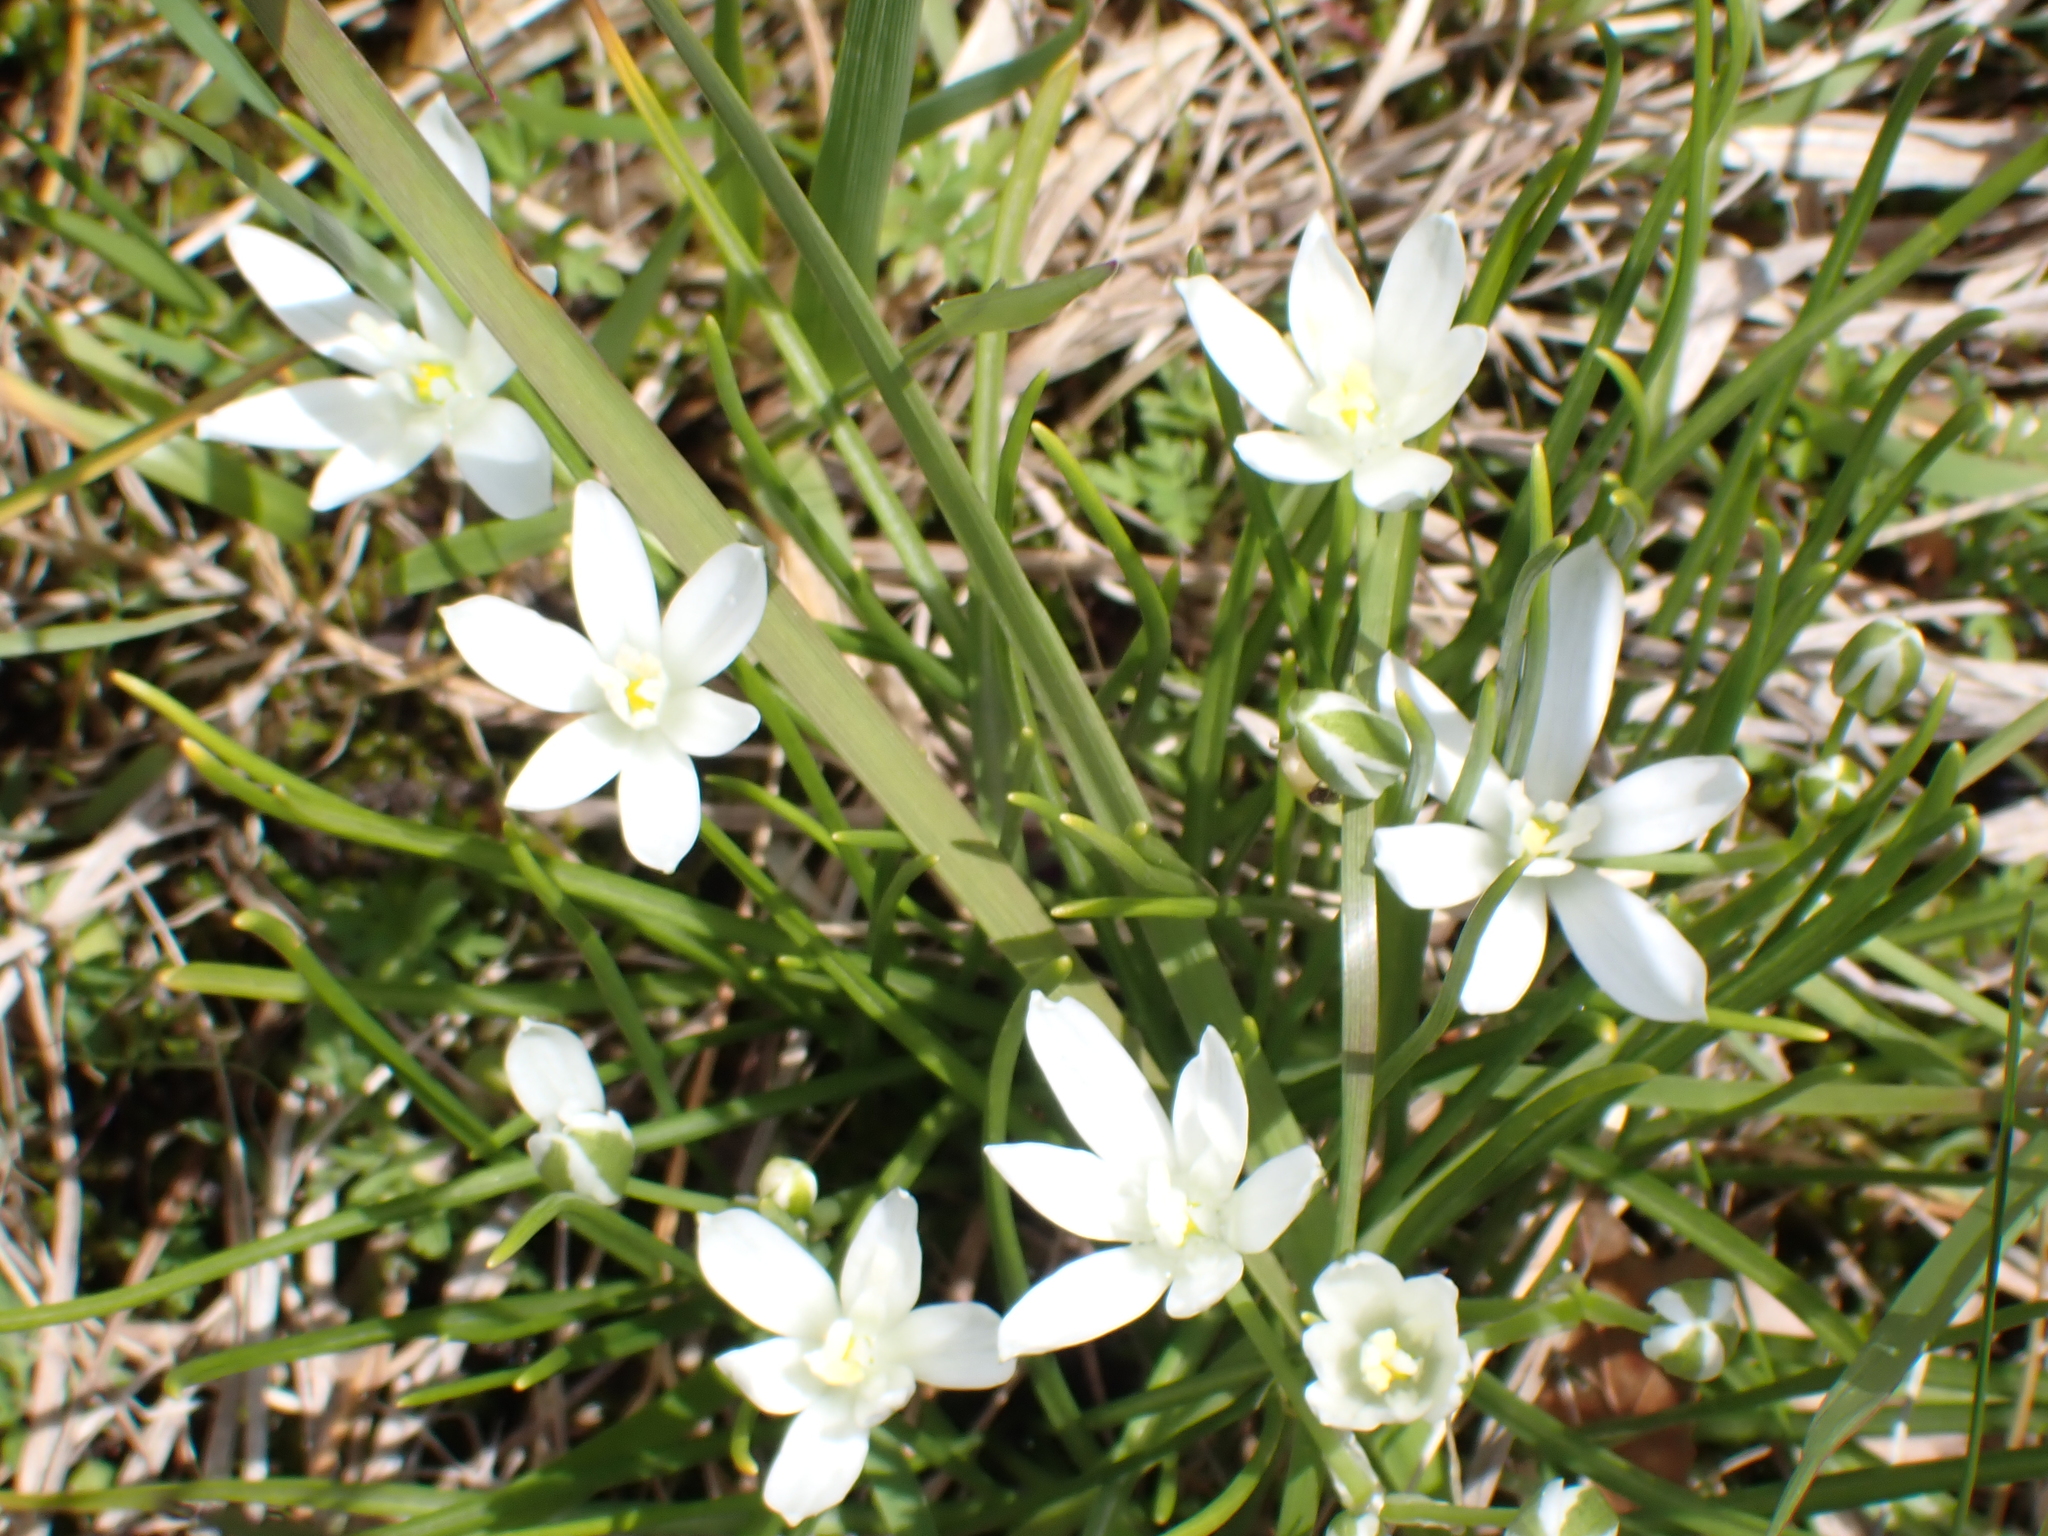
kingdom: Plantae
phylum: Tracheophyta
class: Liliopsida
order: Asparagales
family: Asparagaceae
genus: Ornithogalum
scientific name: Ornithogalum umbellatum
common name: Garden star-of-bethlehem
